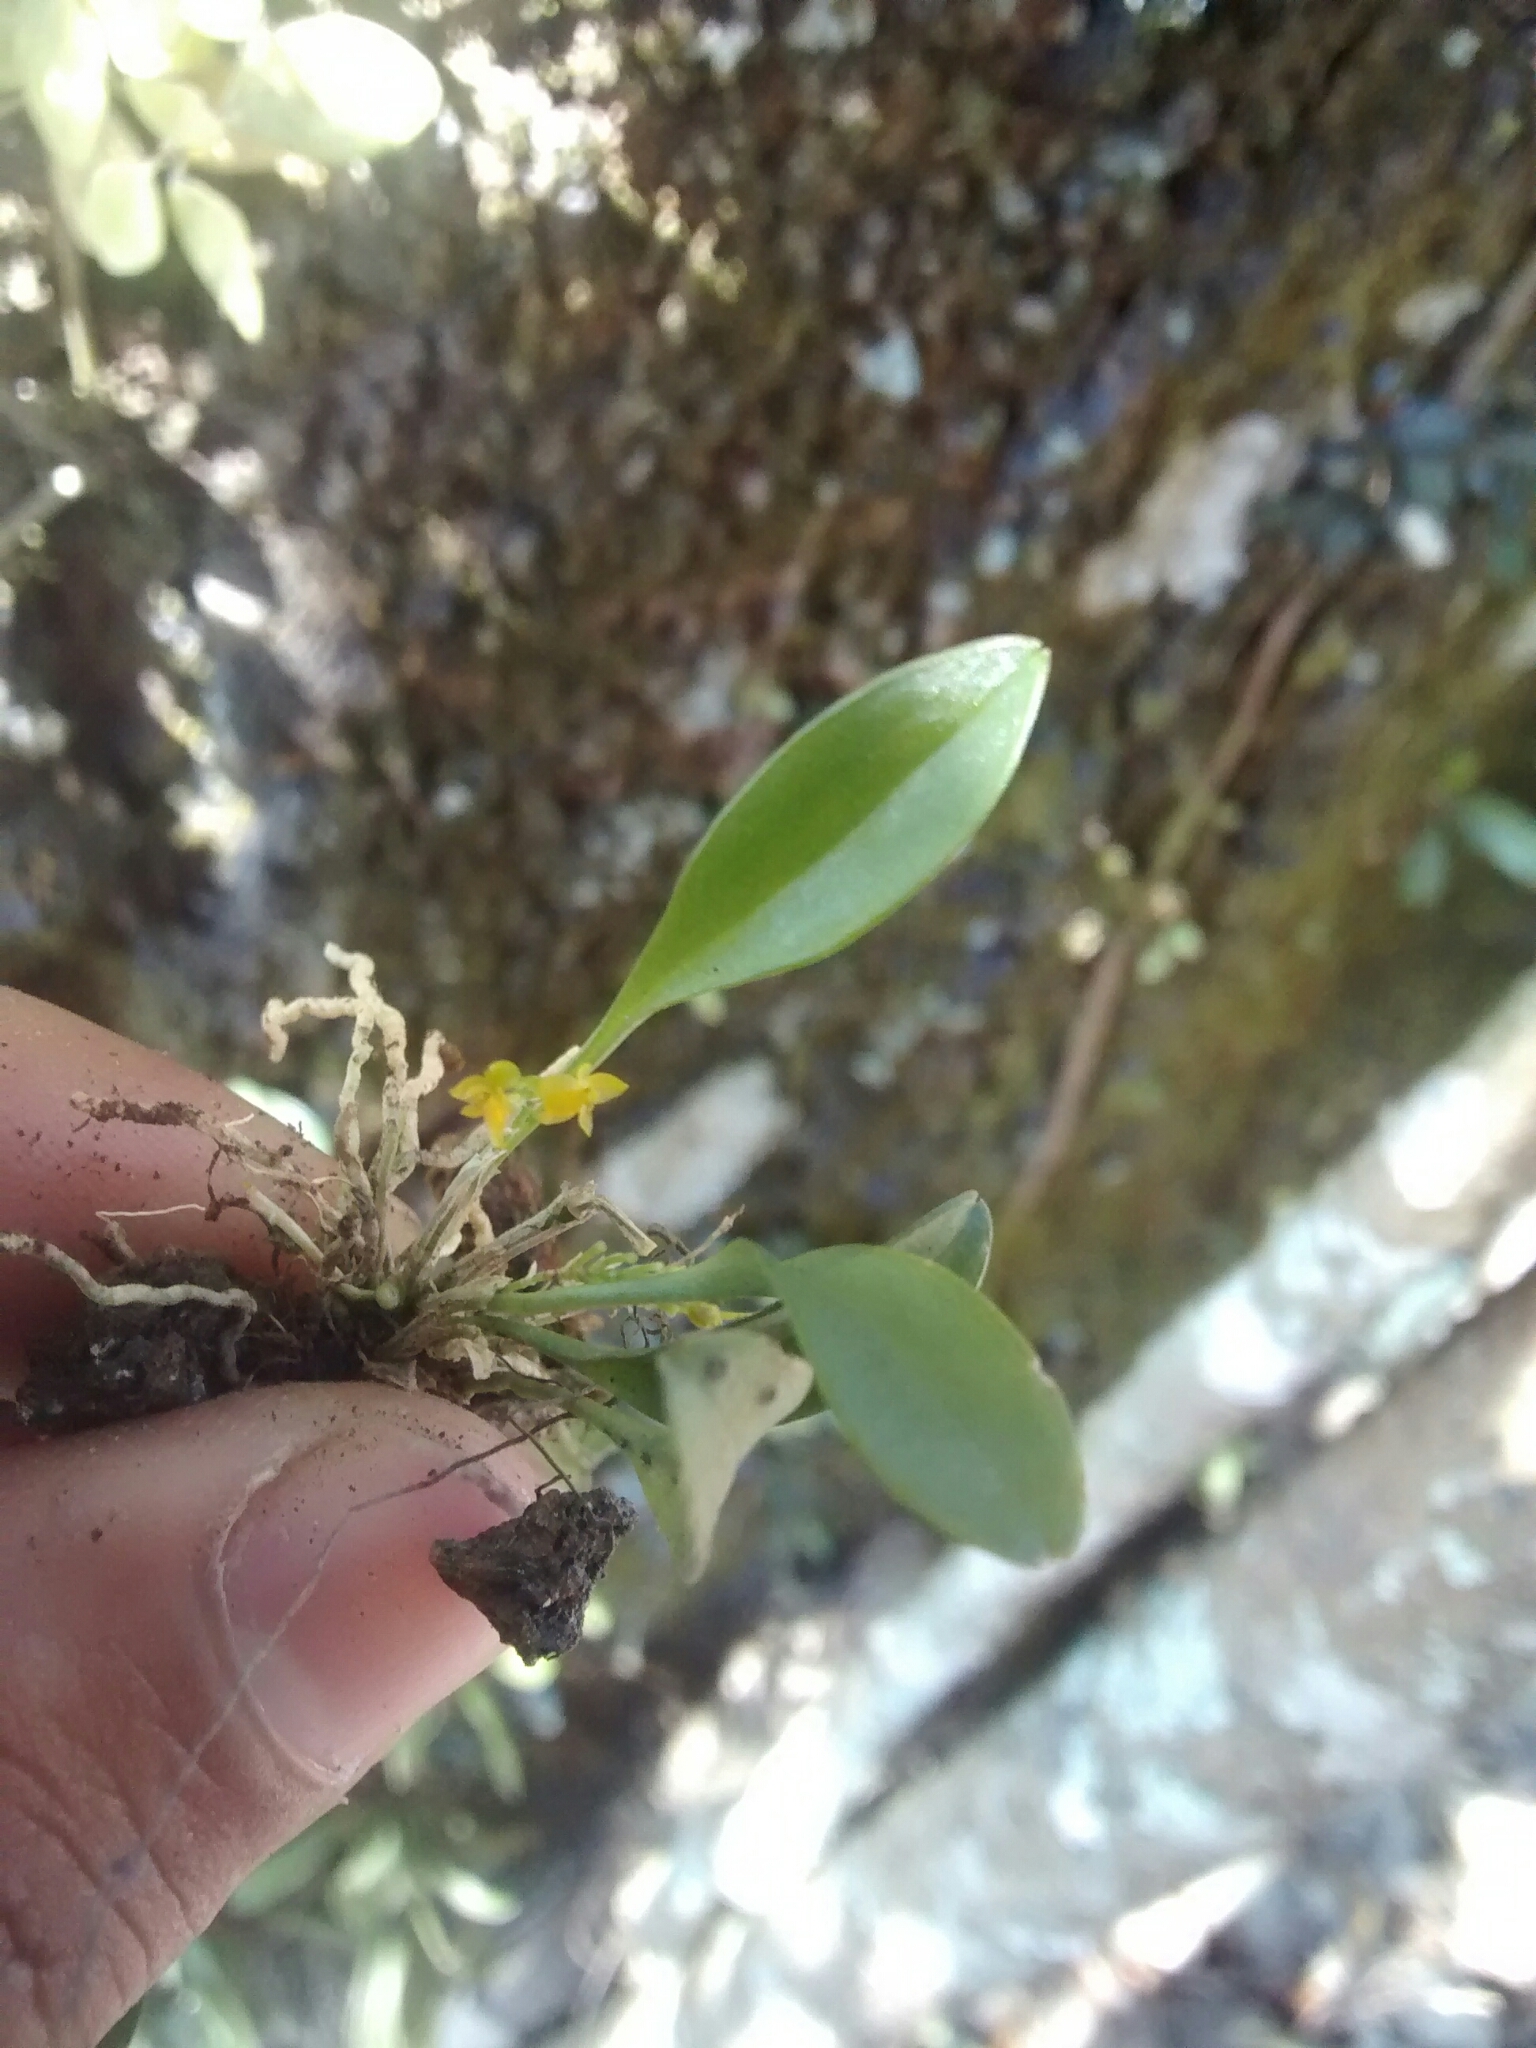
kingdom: Plantae
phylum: Tracheophyta
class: Liliopsida
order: Asparagales
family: Orchidaceae
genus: Platystele
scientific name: Platystele stenostachya
